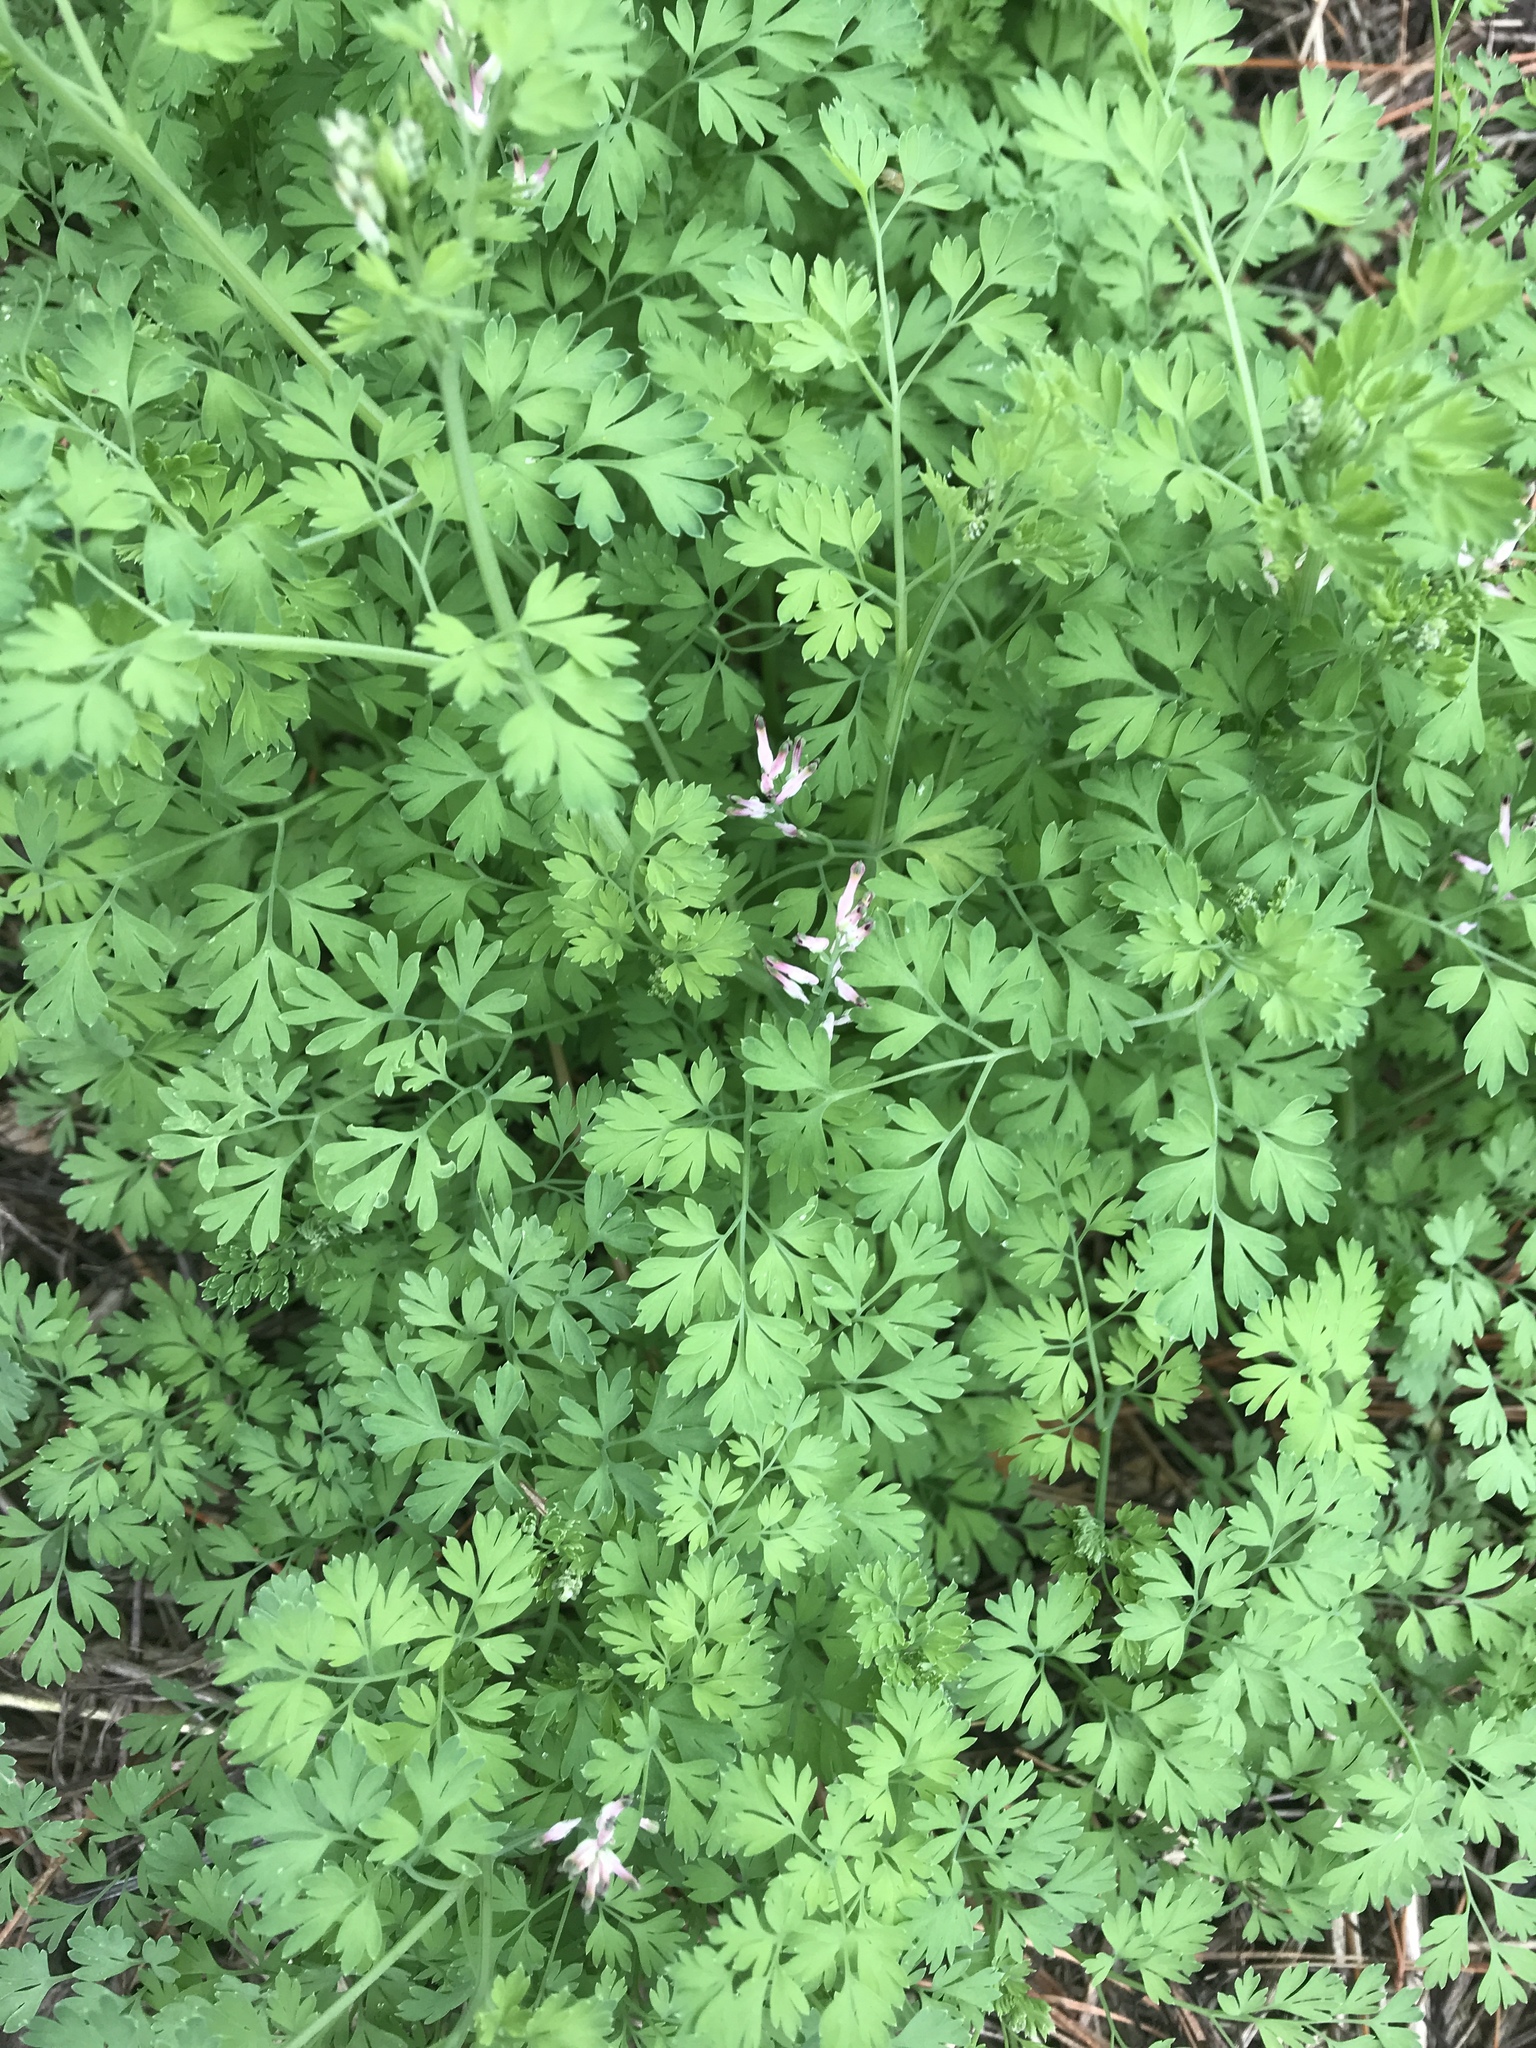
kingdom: Plantae
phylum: Tracheophyta
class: Magnoliopsida
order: Ranunculales
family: Papaveraceae
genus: Fumaria
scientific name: Fumaria muralis
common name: Common ramping-fumitory
